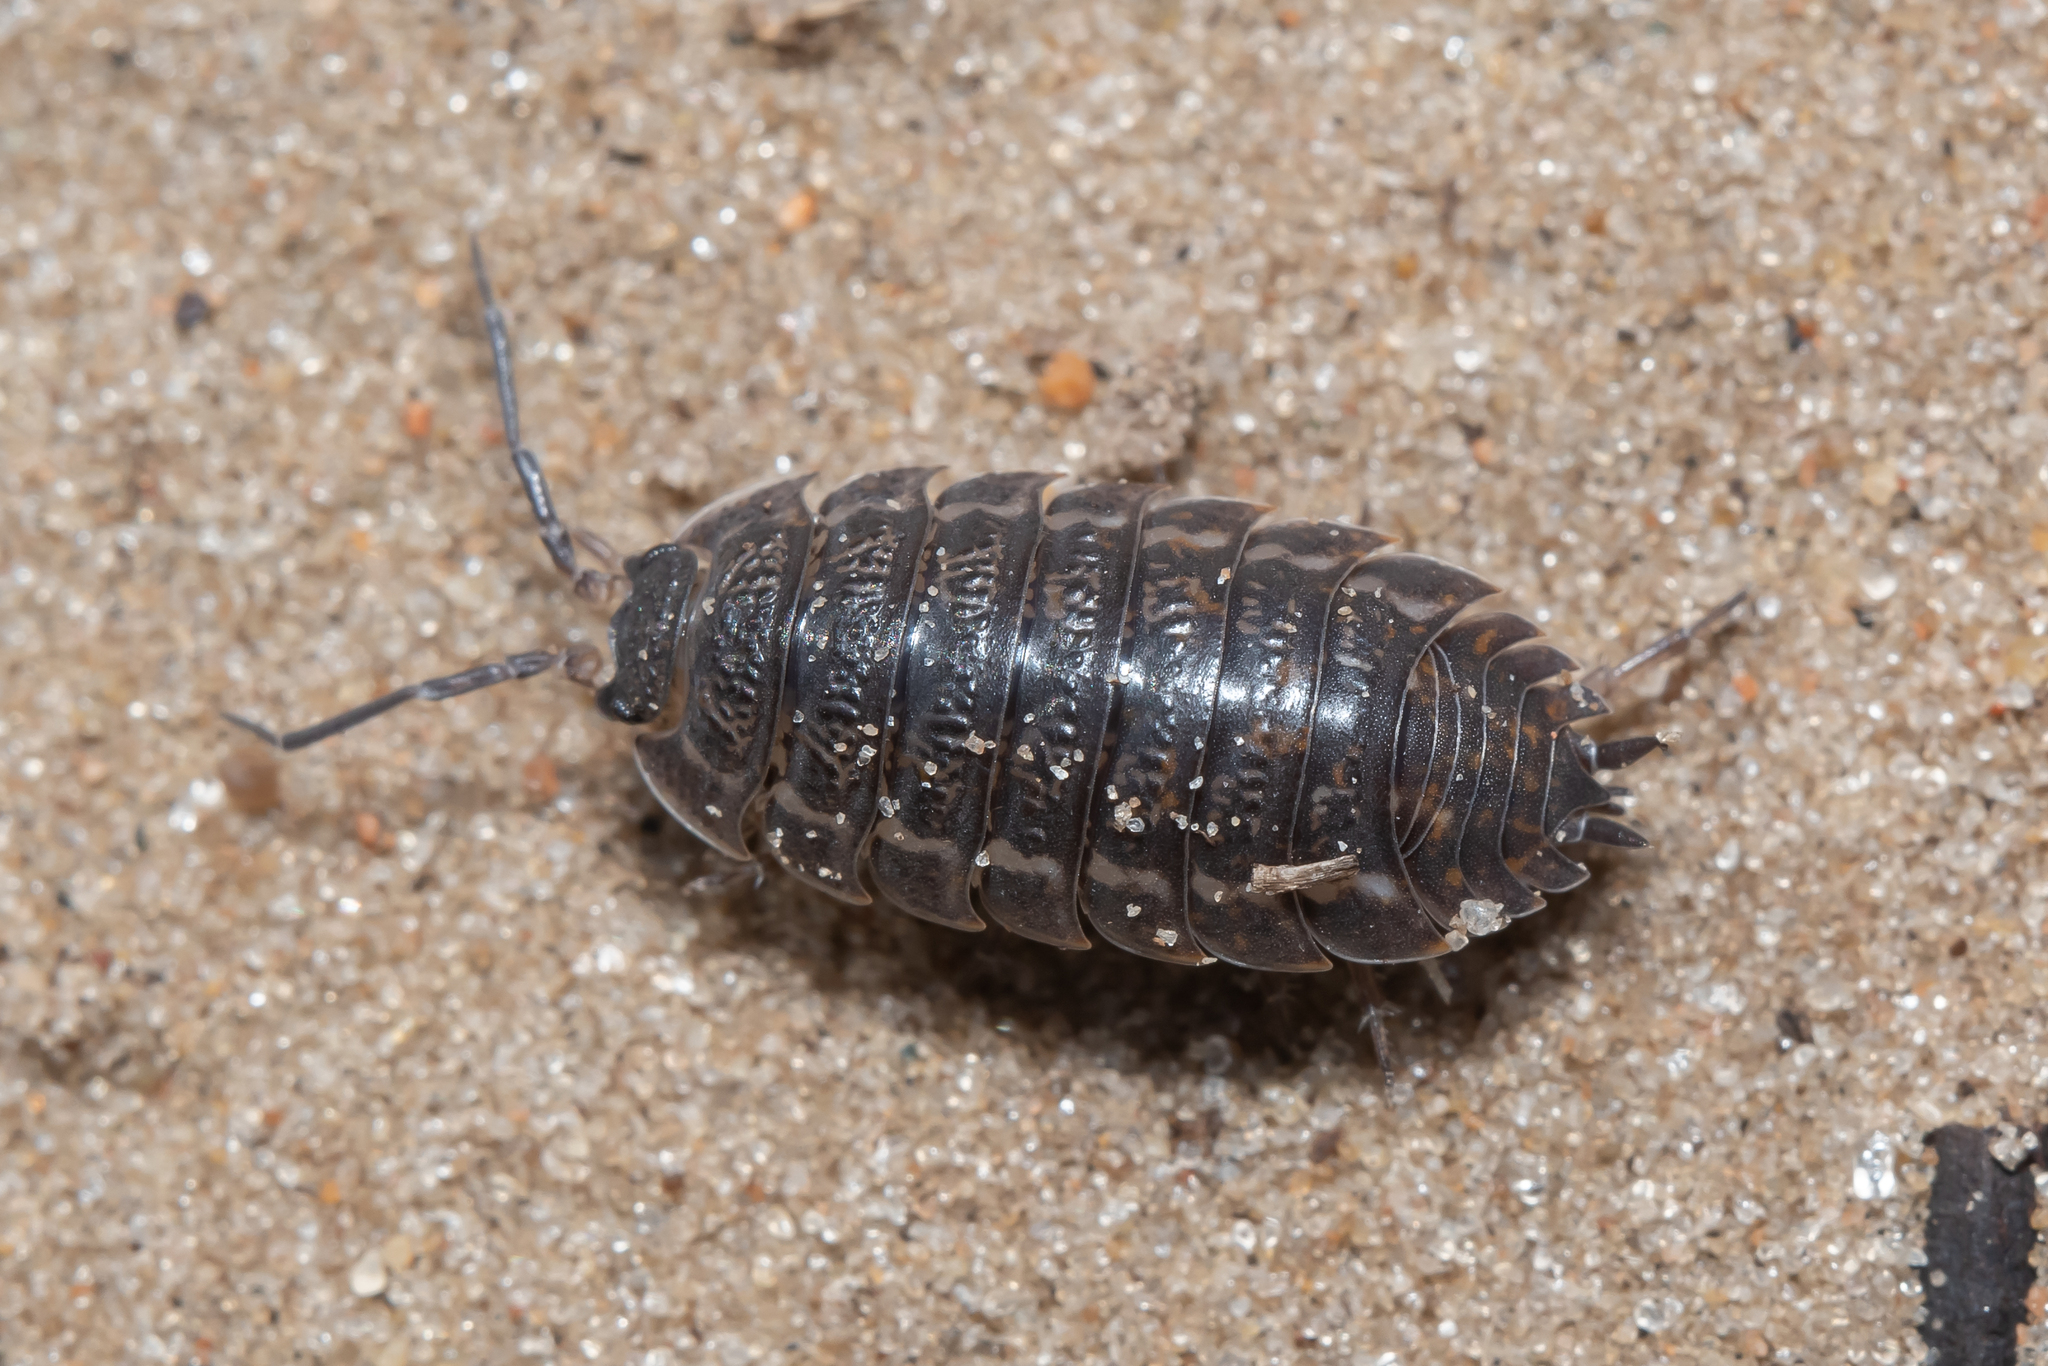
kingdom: Animalia
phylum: Arthropoda
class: Malacostraca
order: Isopoda
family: Trachelipodidae
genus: Trachelipus
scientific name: Trachelipus rathkii
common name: Isopod
